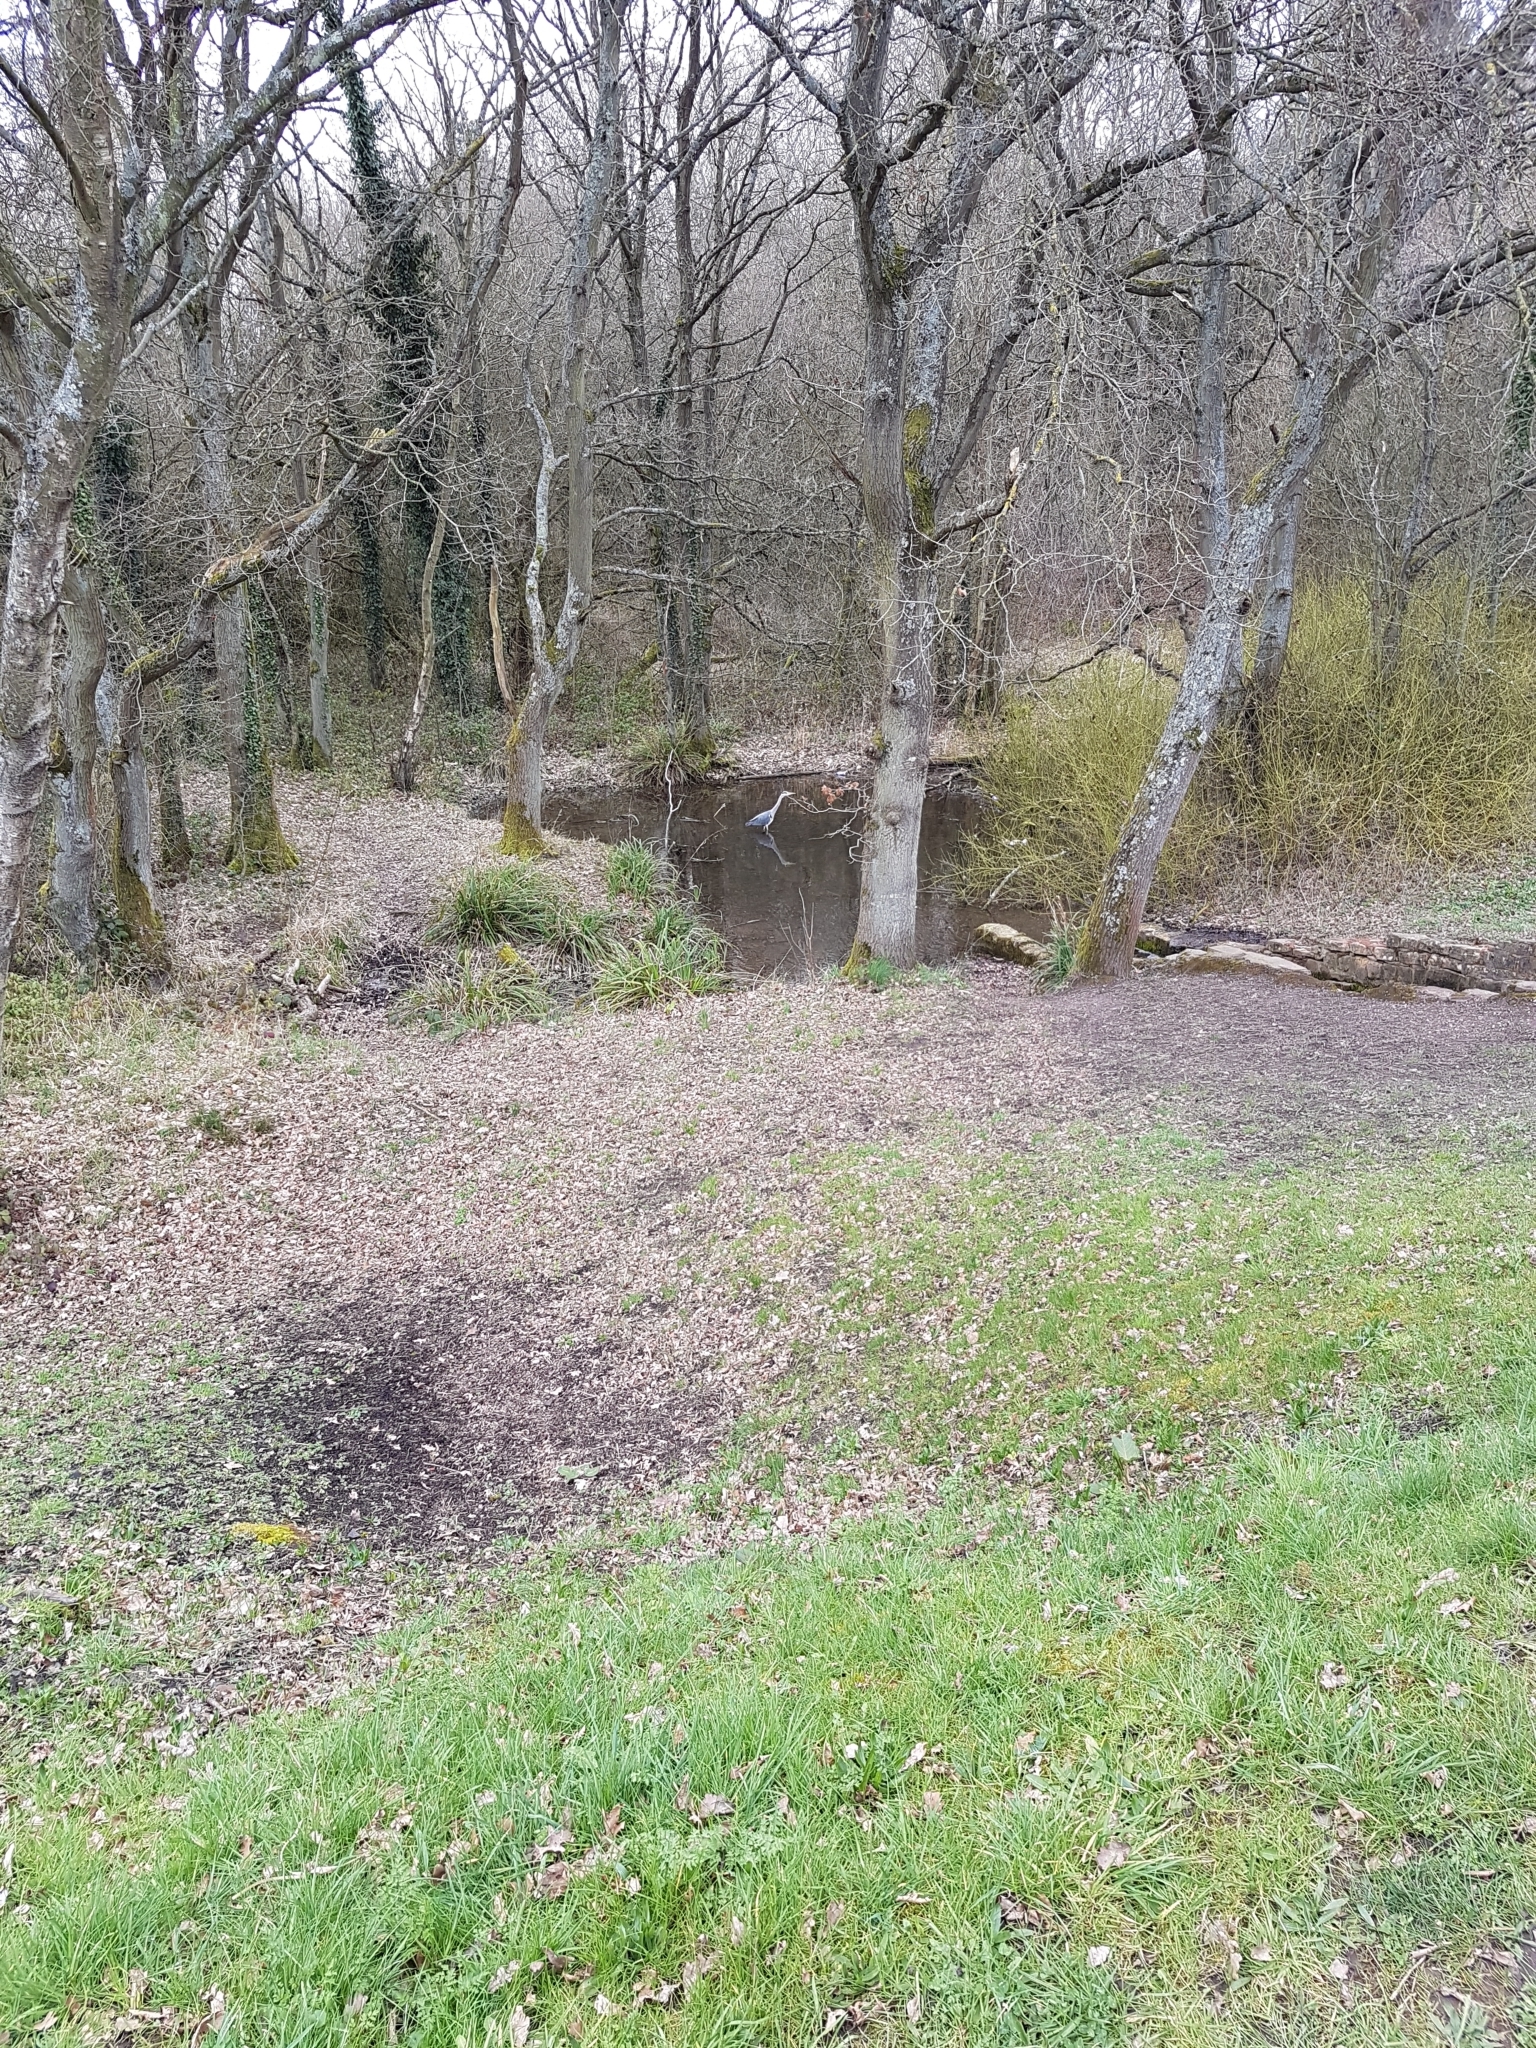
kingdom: Animalia
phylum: Chordata
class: Aves
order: Pelecaniformes
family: Ardeidae
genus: Ardea
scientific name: Ardea cinerea
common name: Grey heron
